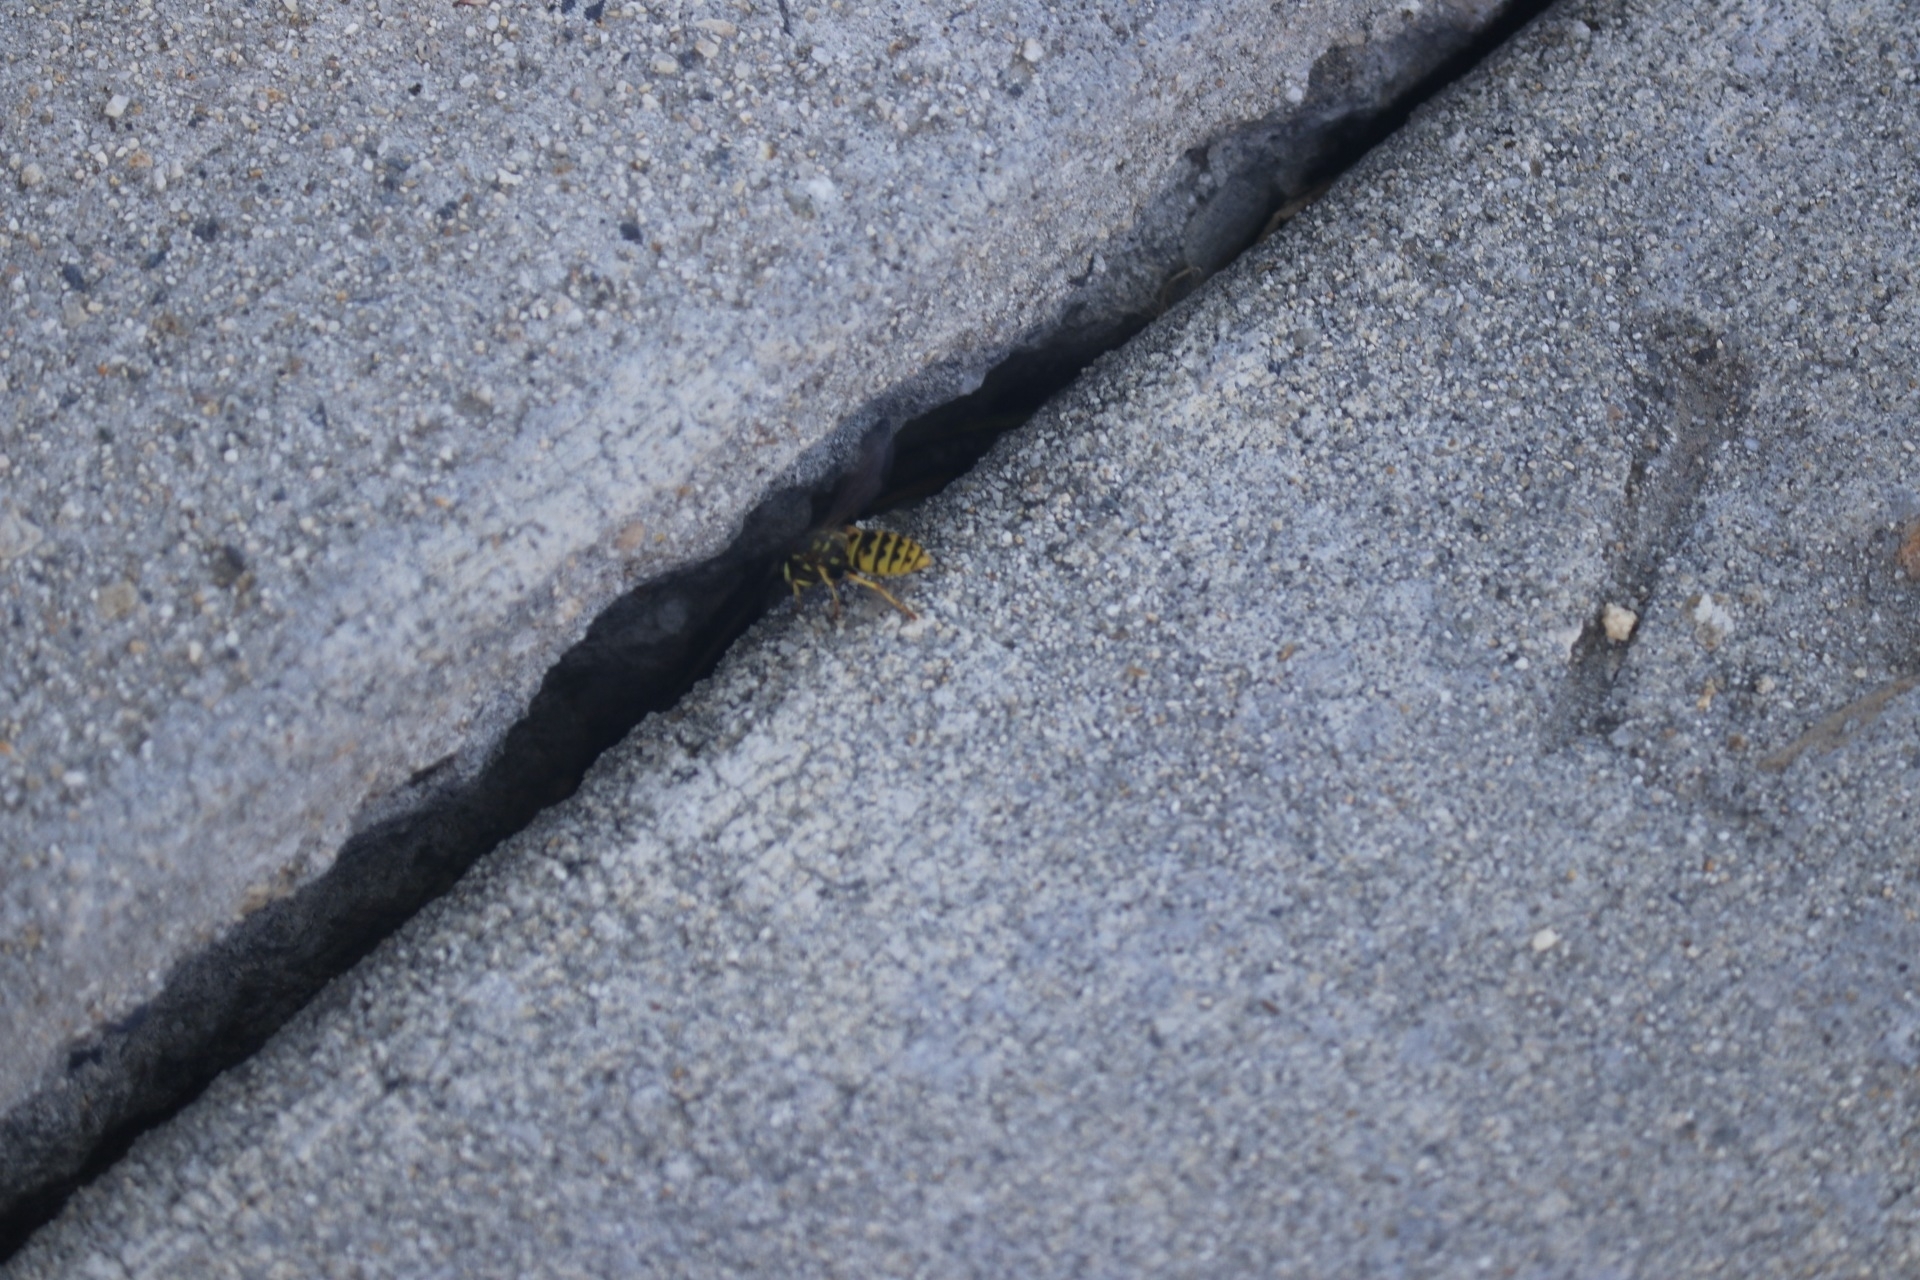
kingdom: Animalia
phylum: Arthropoda
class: Insecta
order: Hymenoptera
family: Vespidae
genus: Vespula
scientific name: Vespula germanica
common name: German wasp
